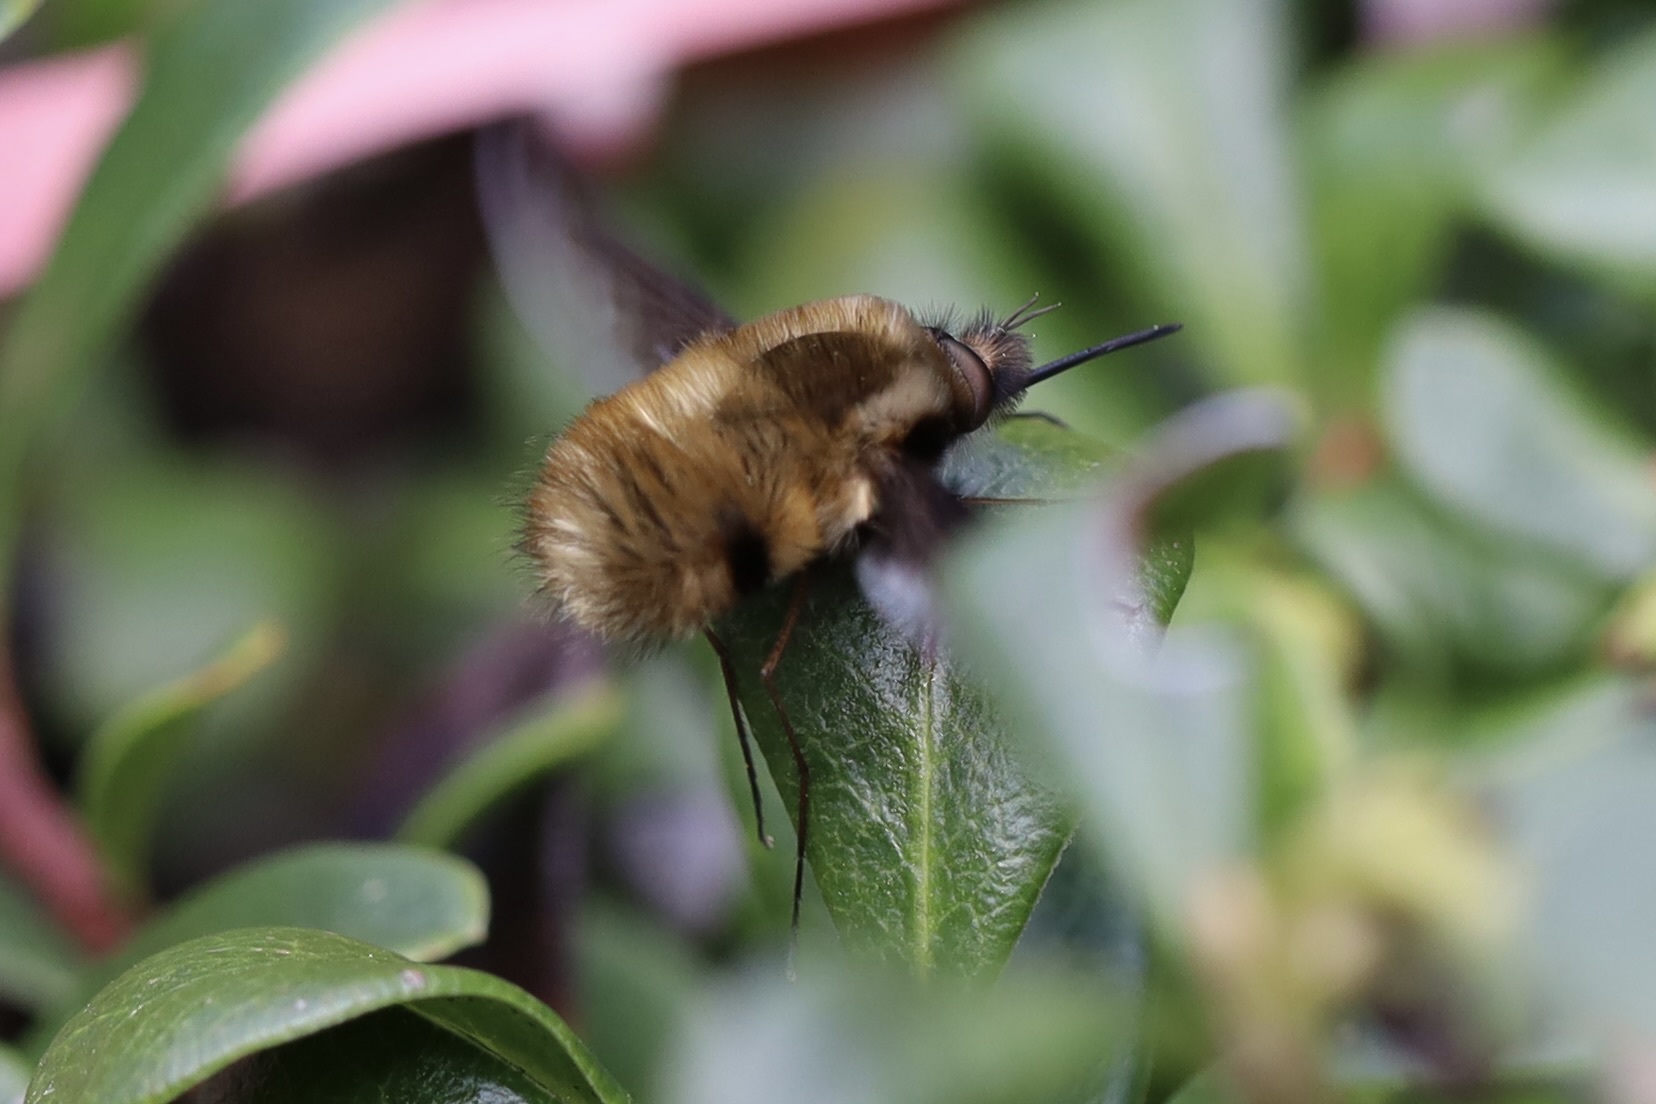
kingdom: Animalia
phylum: Arthropoda
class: Insecta
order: Diptera
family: Bombyliidae
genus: Bombylius
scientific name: Bombylius major
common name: Bee fly
